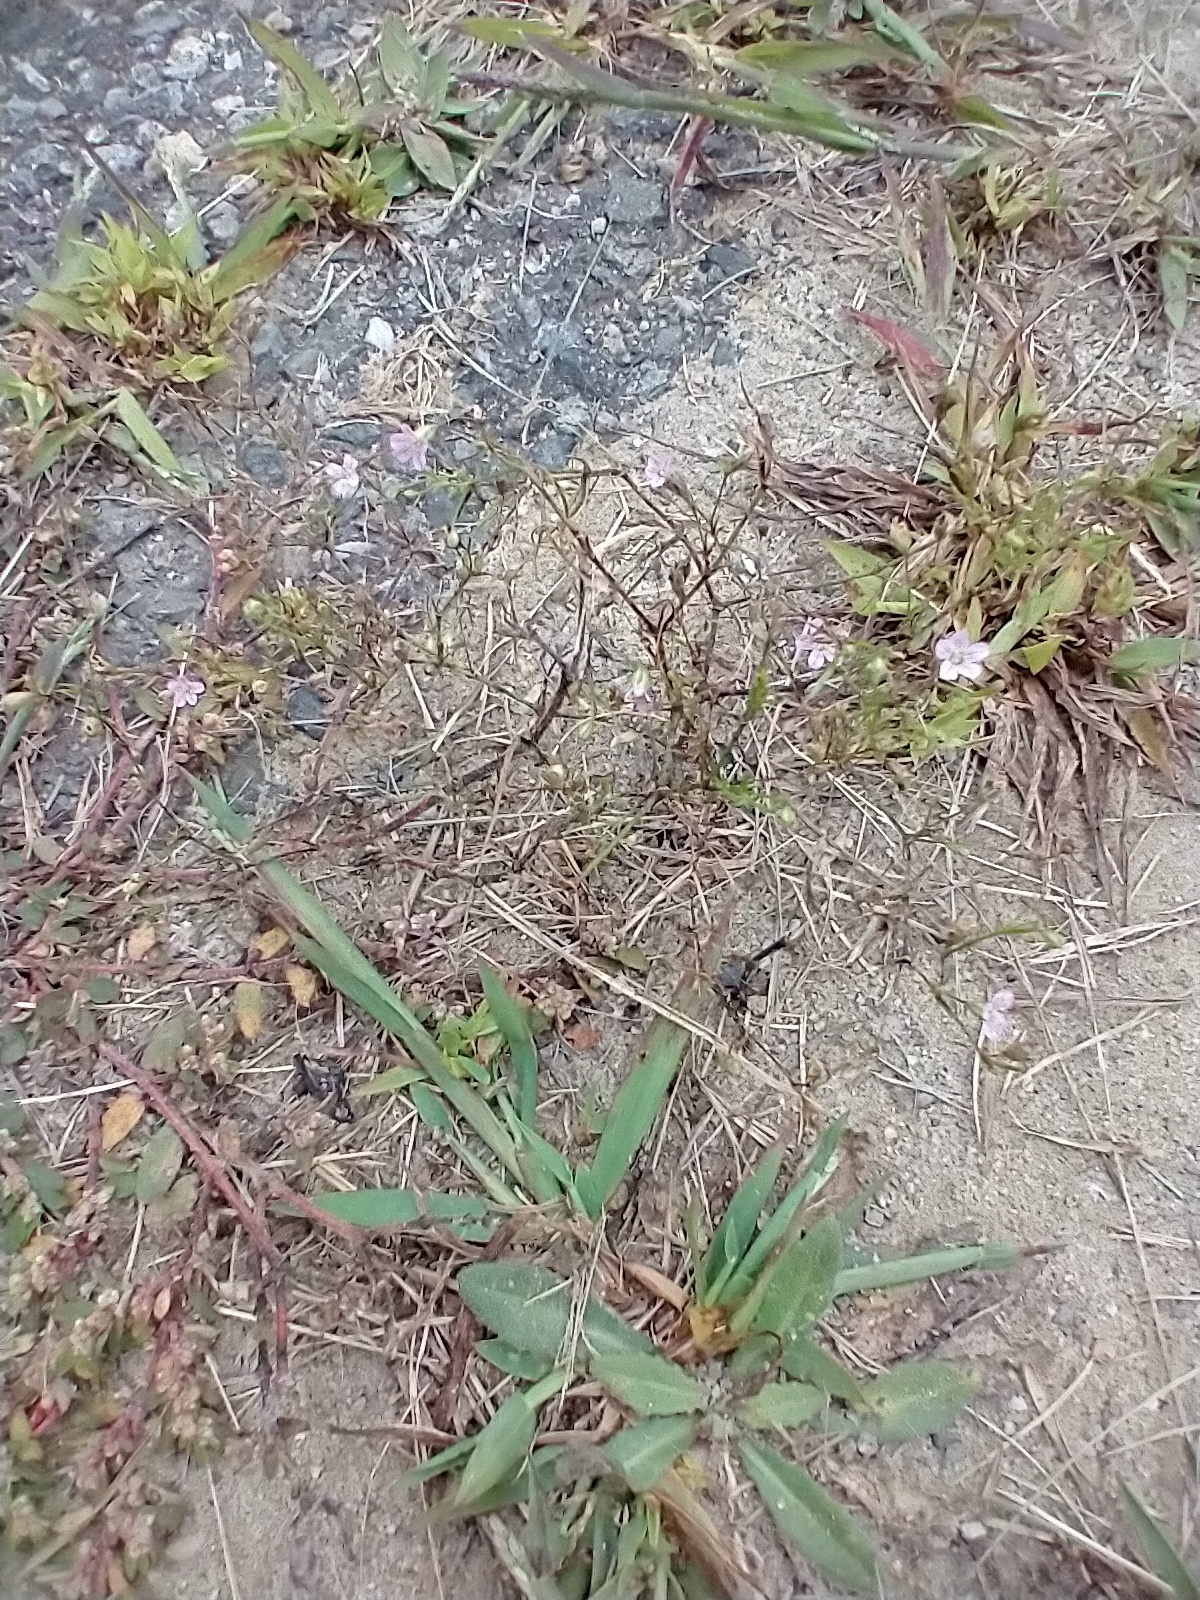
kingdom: Plantae
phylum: Tracheophyta
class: Magnoliopsida
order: Caryophyllales
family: Caryophyllaceae
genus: Psammophiliella
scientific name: Psammophiliella muralis
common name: Cushion baby's-breath
